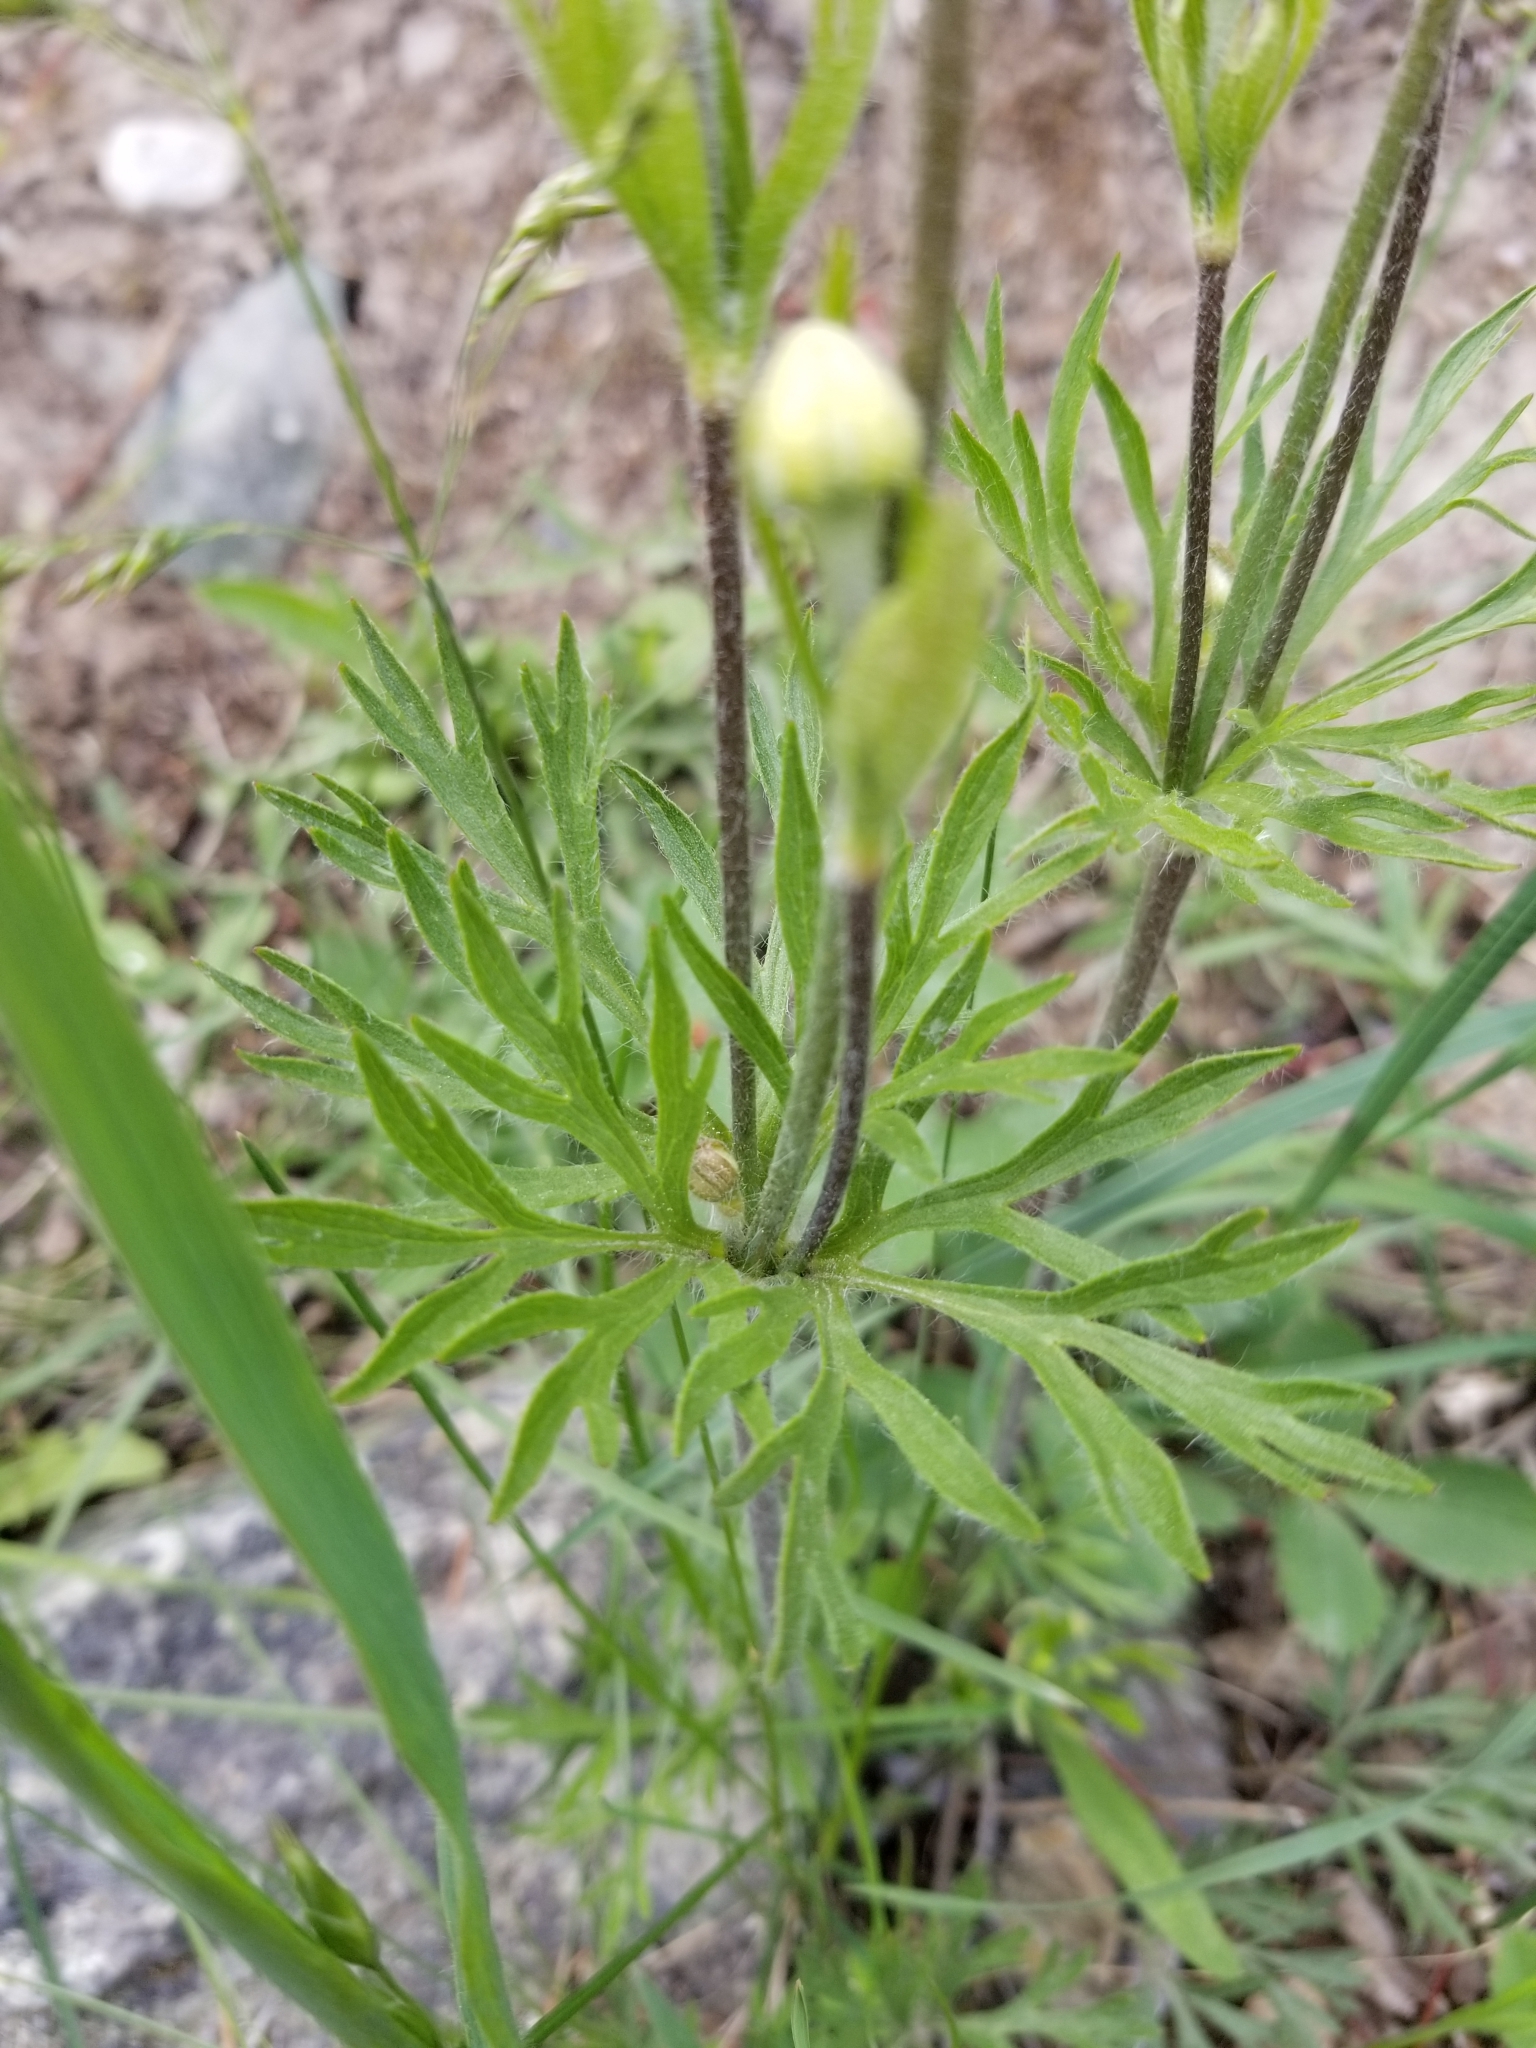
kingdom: Plantae
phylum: Tracheophyta
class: Magnoliopsida
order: Ranunculales
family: Ranunculaceae
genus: Anemone
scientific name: Anemone multifida
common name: Bird's-foot anemone
